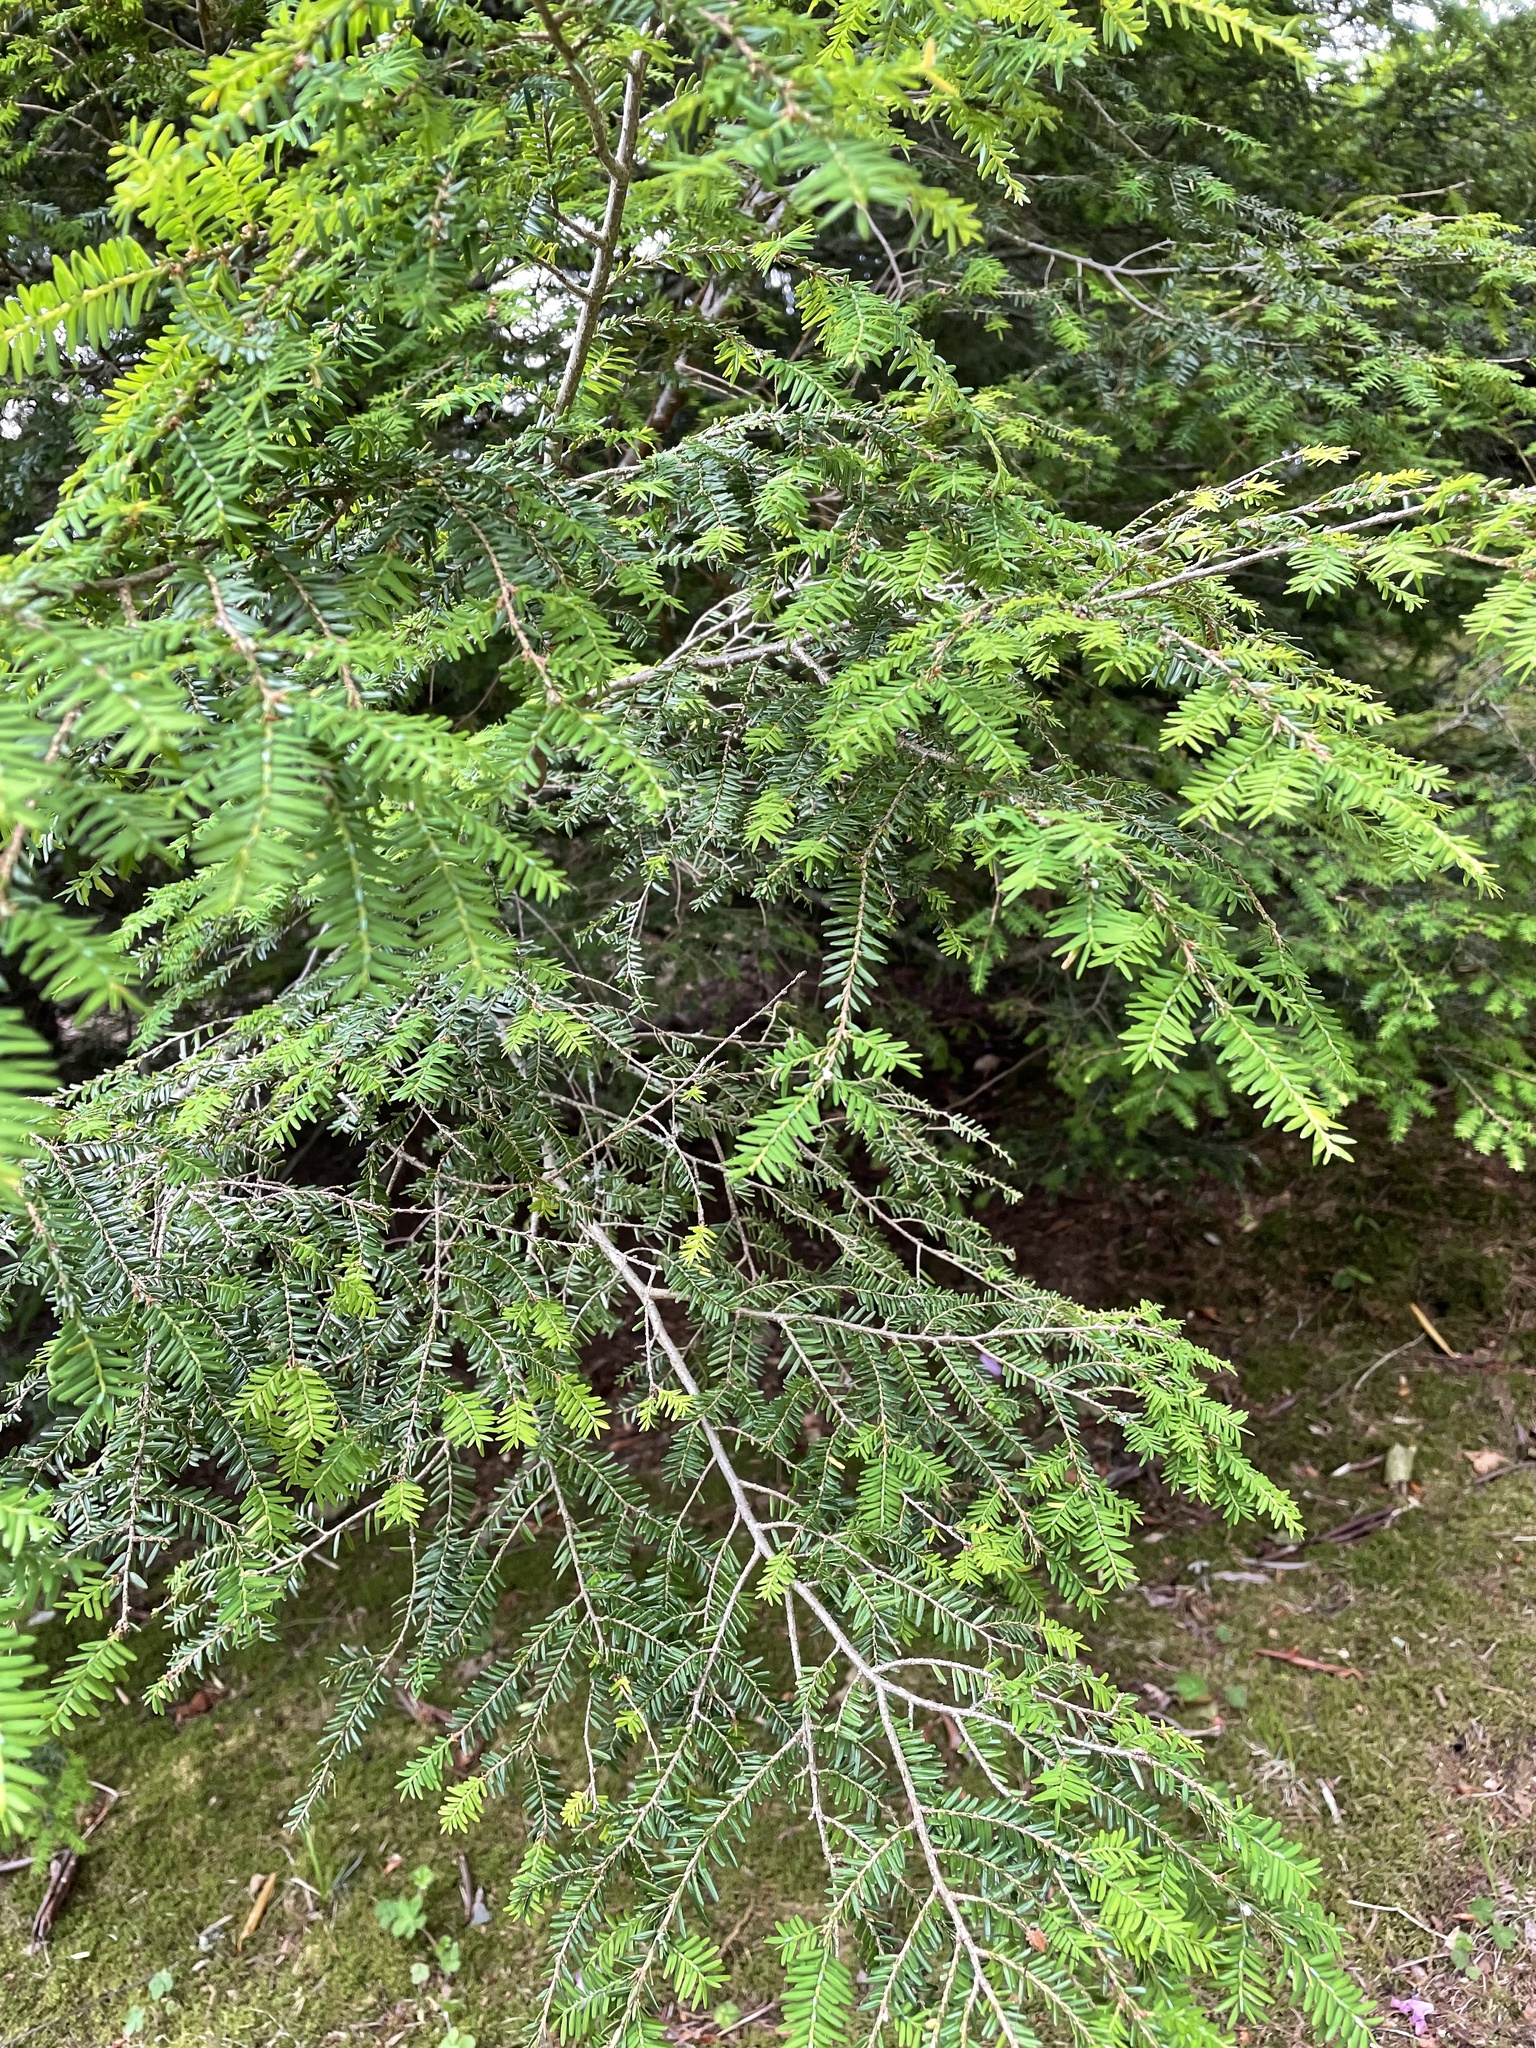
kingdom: Plantae
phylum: Tracheophyta
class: Pinopsida
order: Pinales
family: Pinaceae
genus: Tsuga
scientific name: Tsuga canadensis
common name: Eastern hemlock
